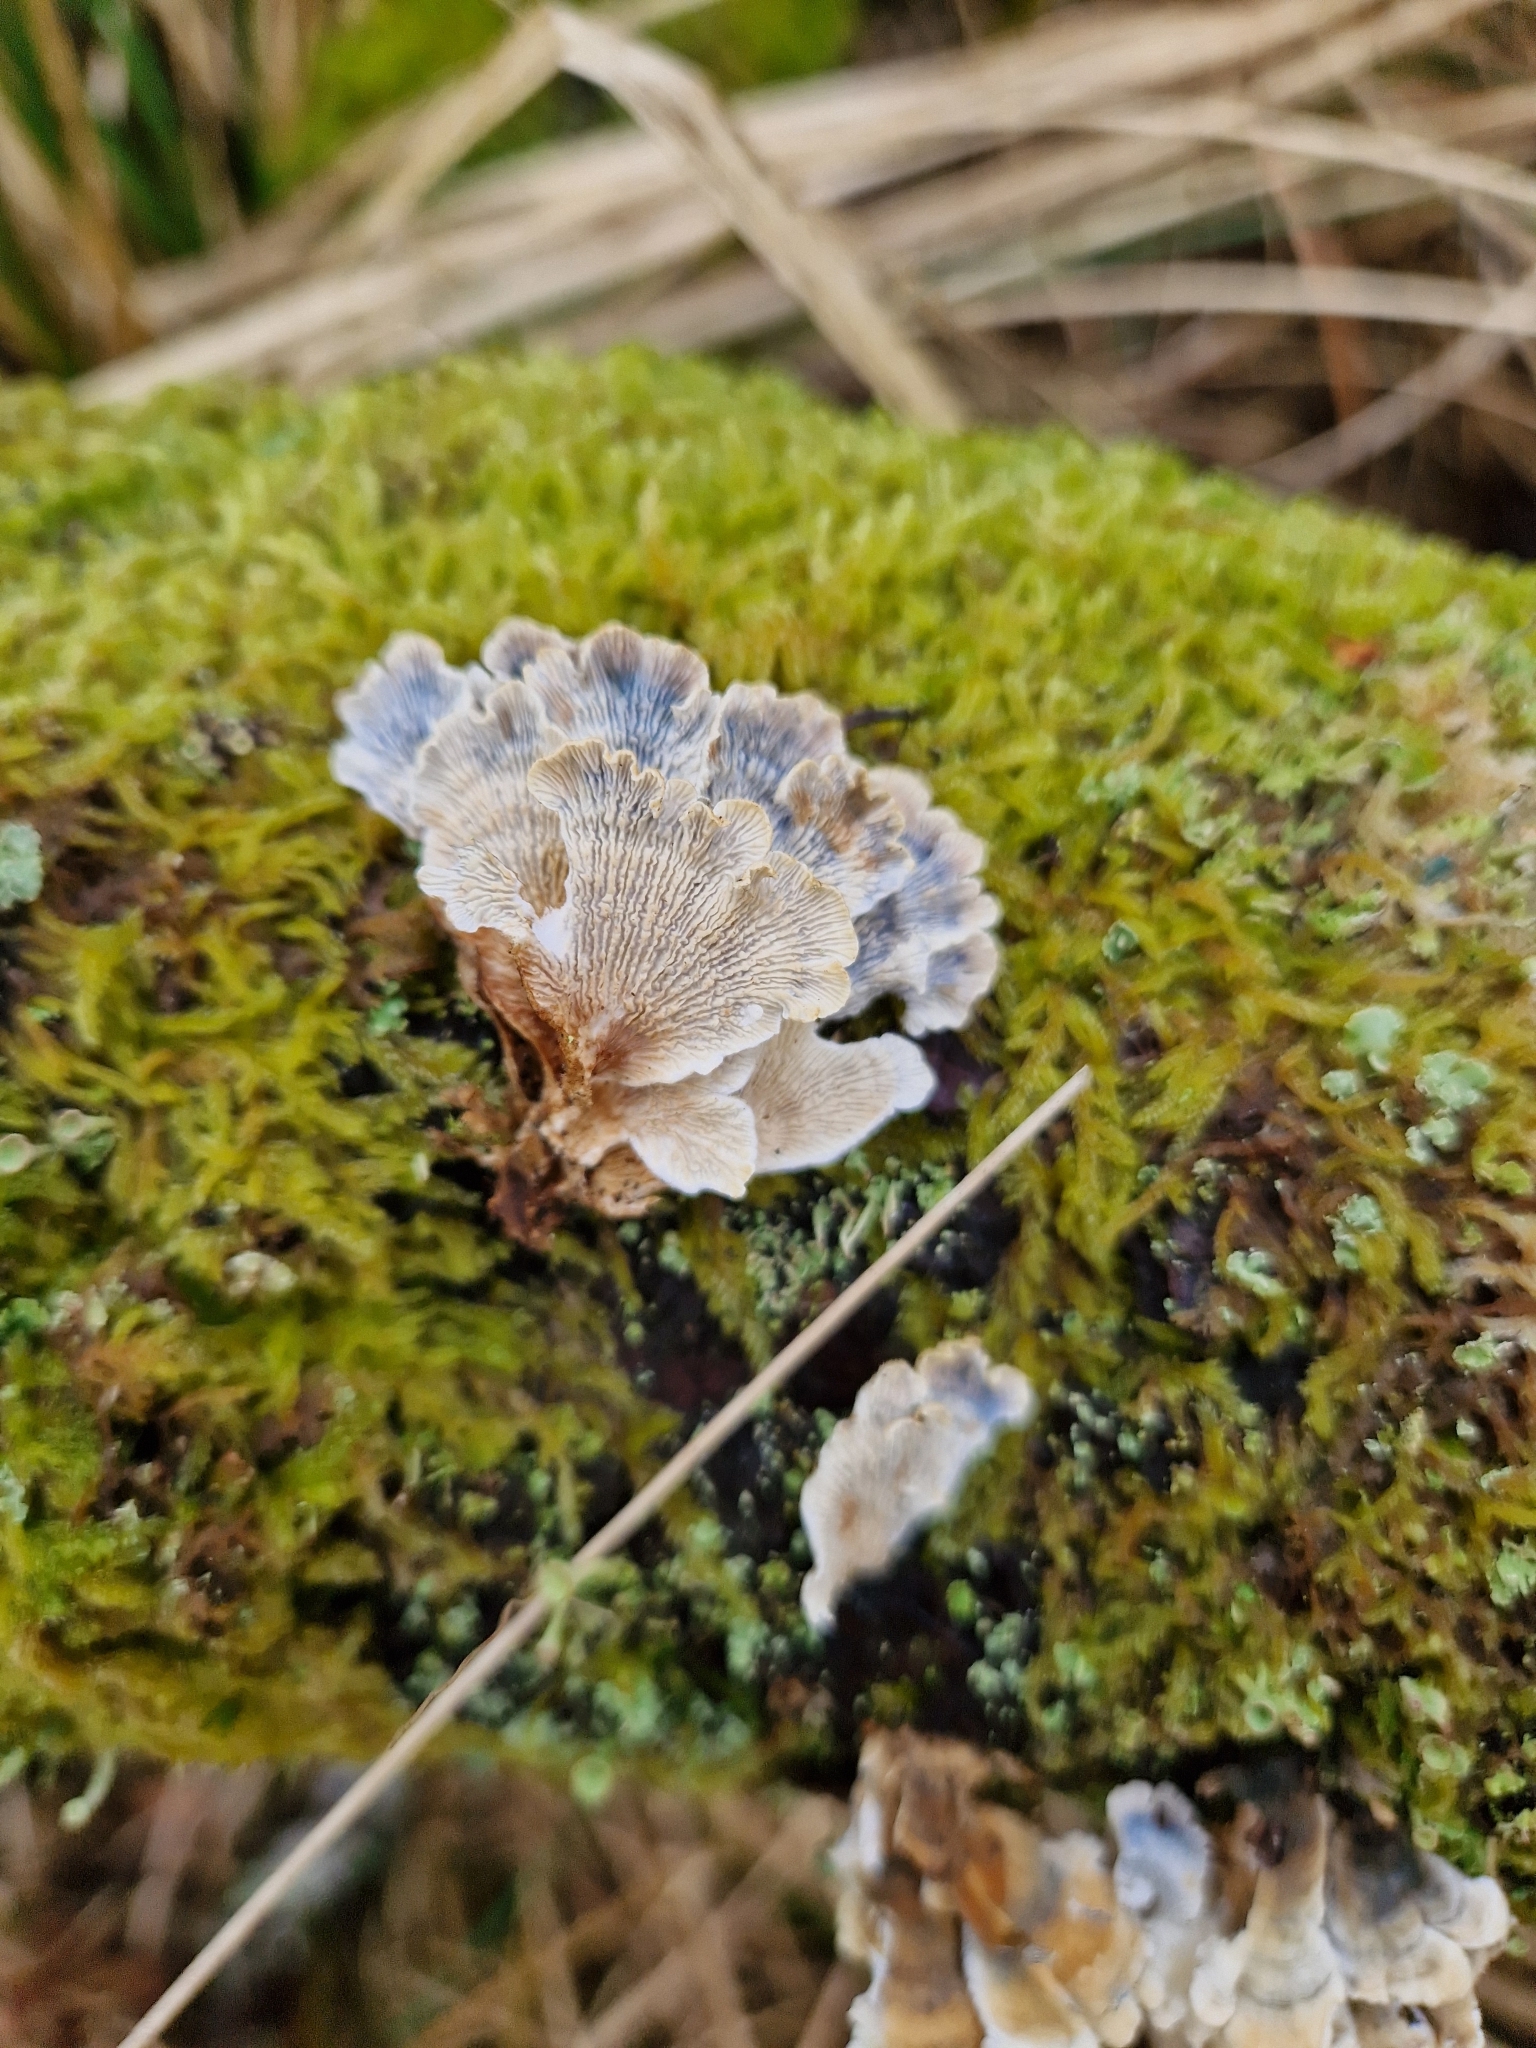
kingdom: Fungi
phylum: Basidiomycota
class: Agaricomycetes
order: Amylocorticiales
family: Amylocorticiaceae
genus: Plicaturopsis
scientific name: Plicaturopsis crispa
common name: Crimped gill
